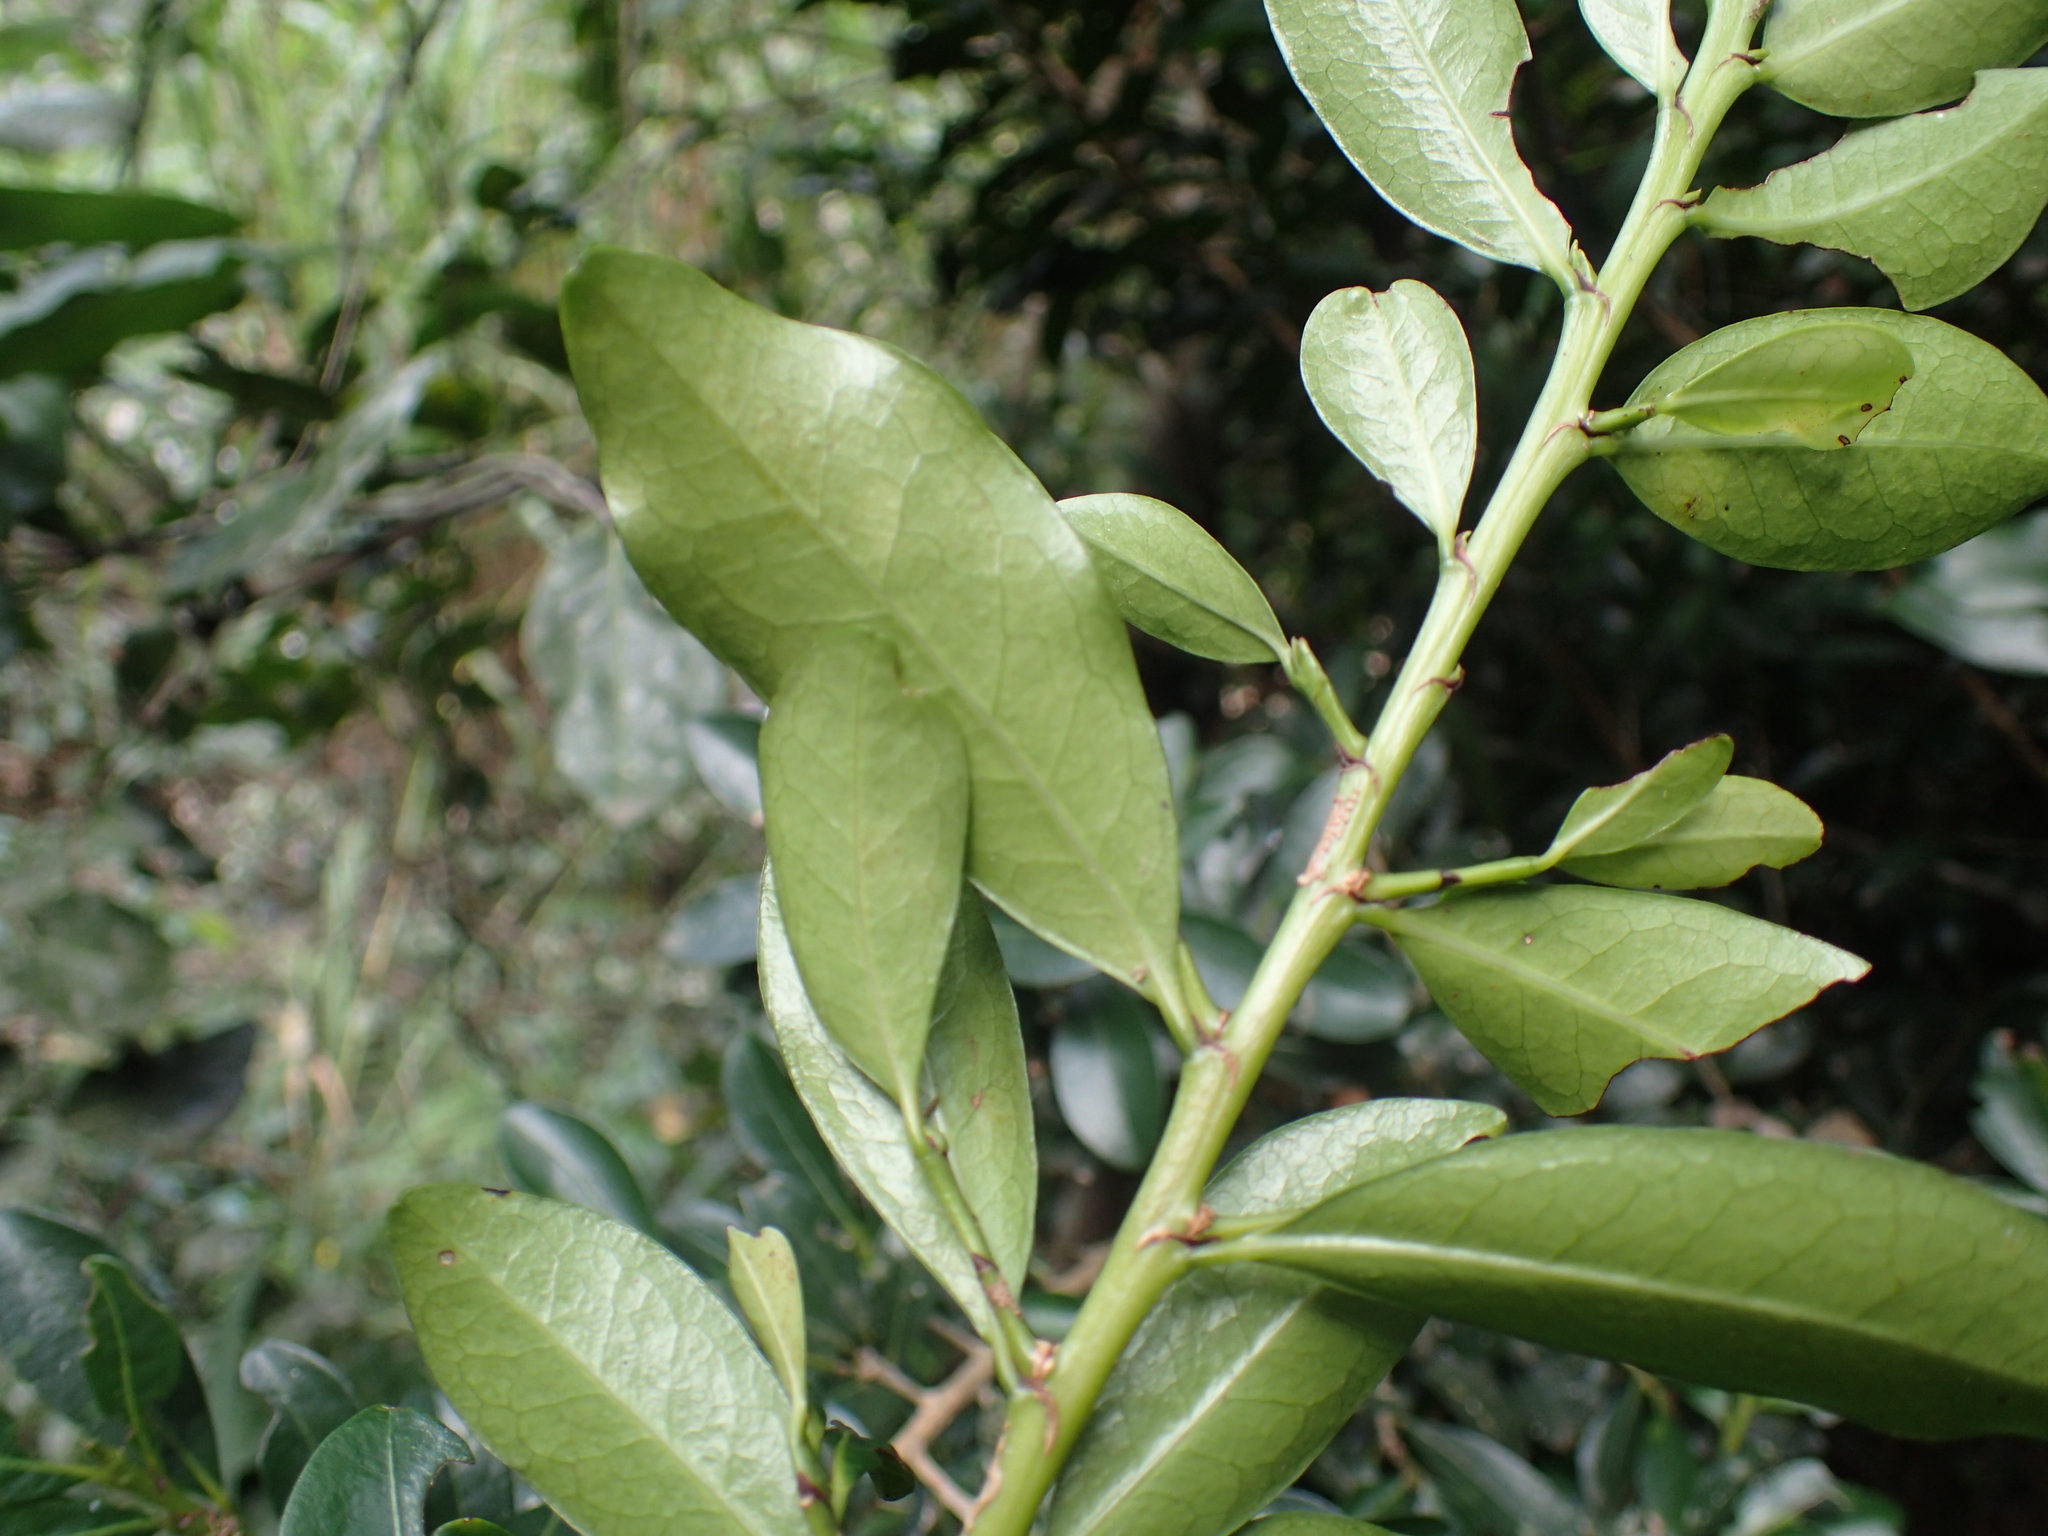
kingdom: Plantae
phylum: Tracheophyta
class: Magnoliopsida
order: Malpighiales
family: Erythroxylaceae
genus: Erythroxylum
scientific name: Erythroxylum emarginatum
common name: African coca-tree
